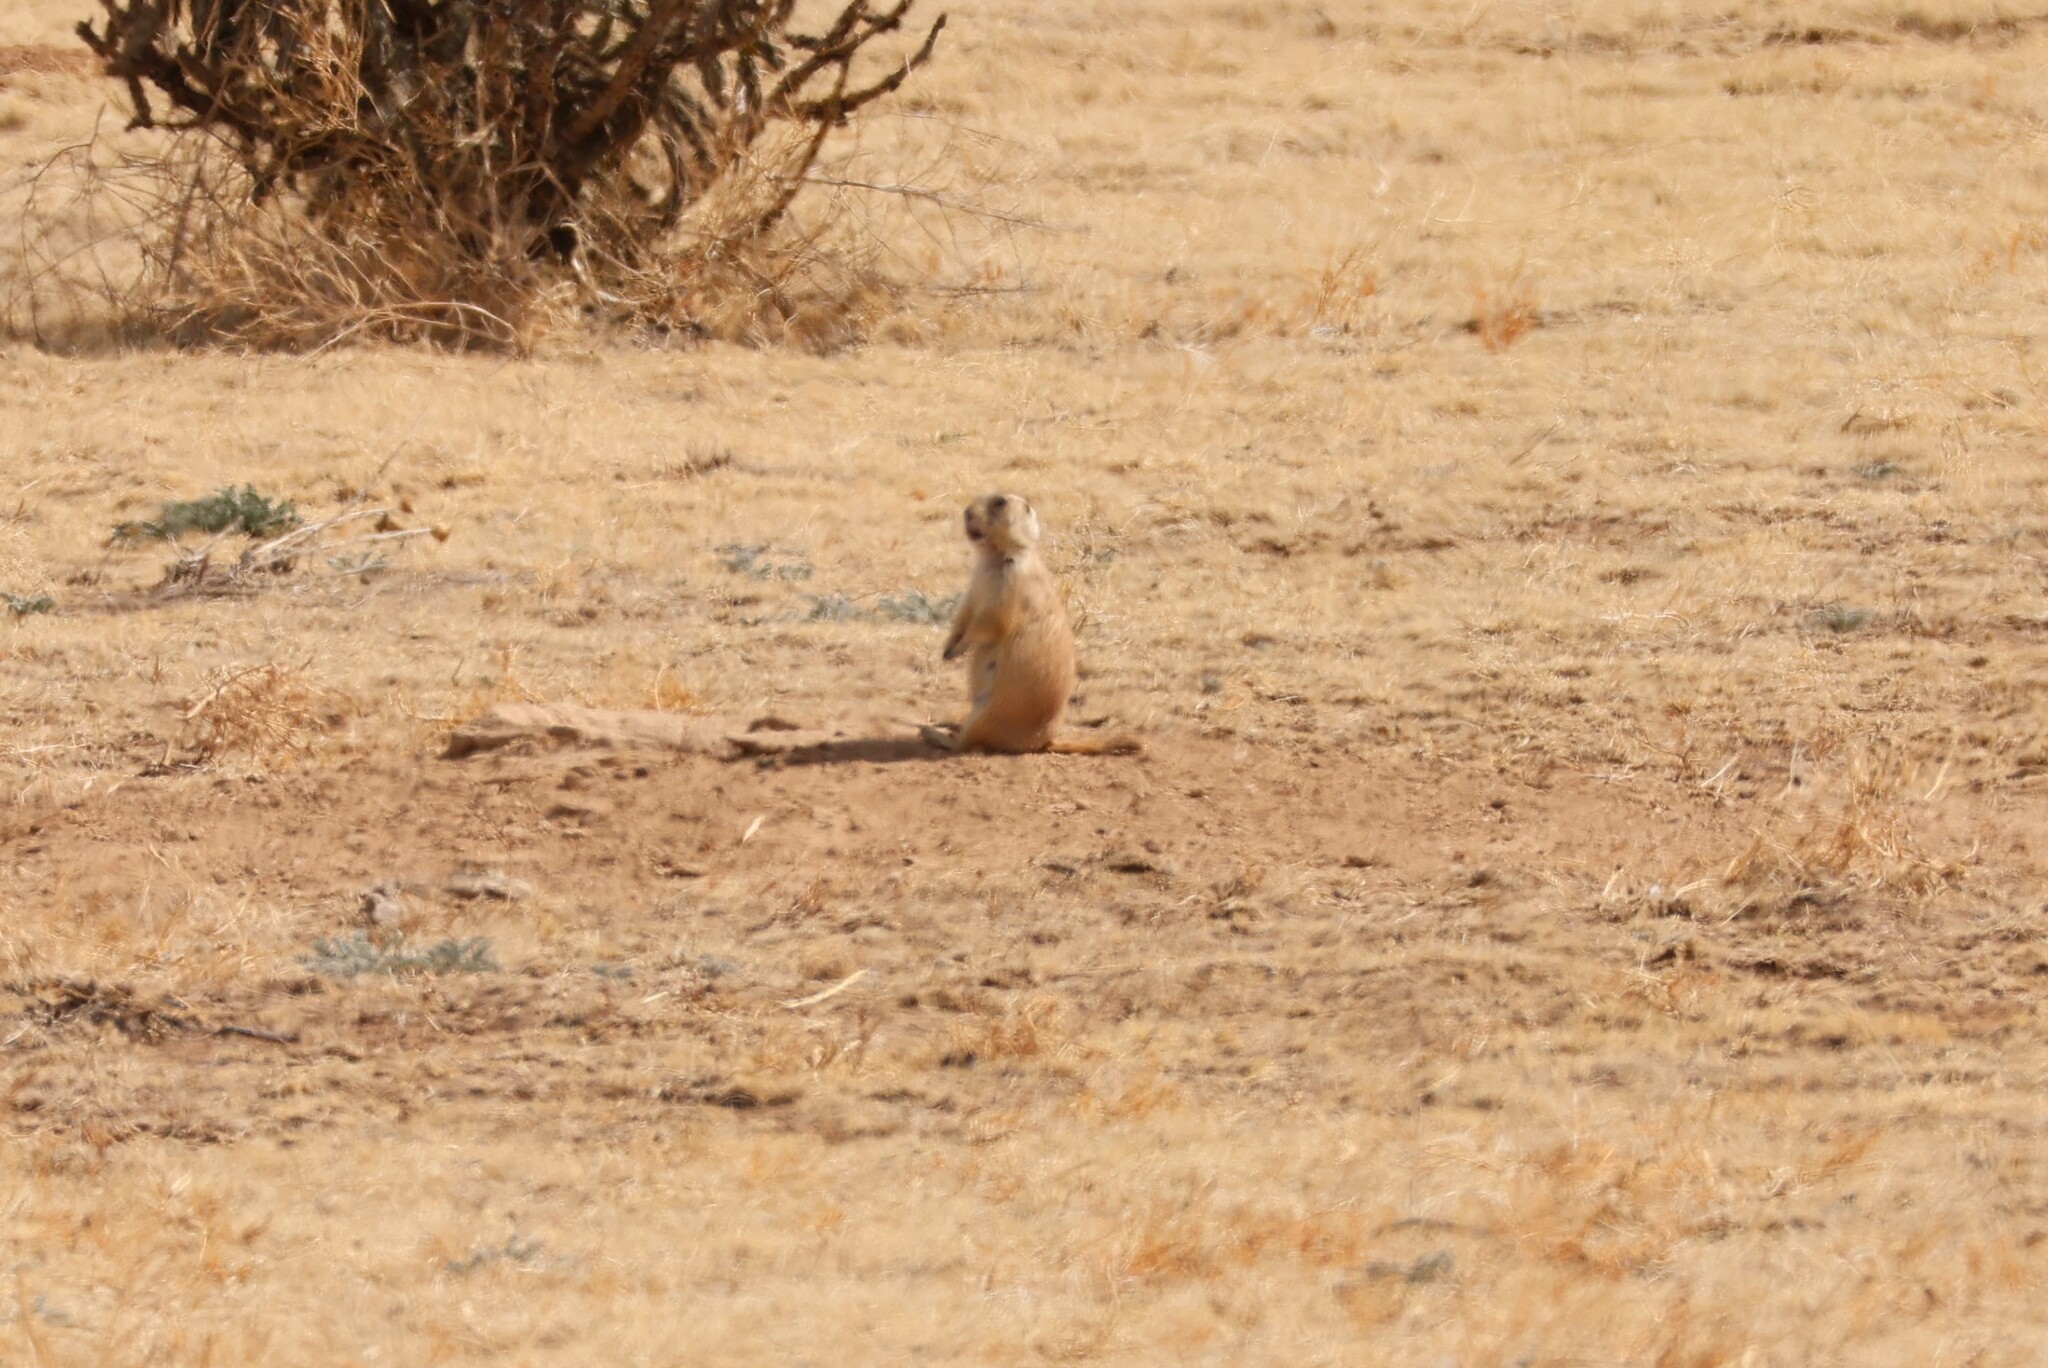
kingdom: Animalia
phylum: Chordata
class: Mammalia
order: Rodentia
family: Sciuridae
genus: Cynomys
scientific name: Cynomys ludovicianus
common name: Black-tailed prairie dog
